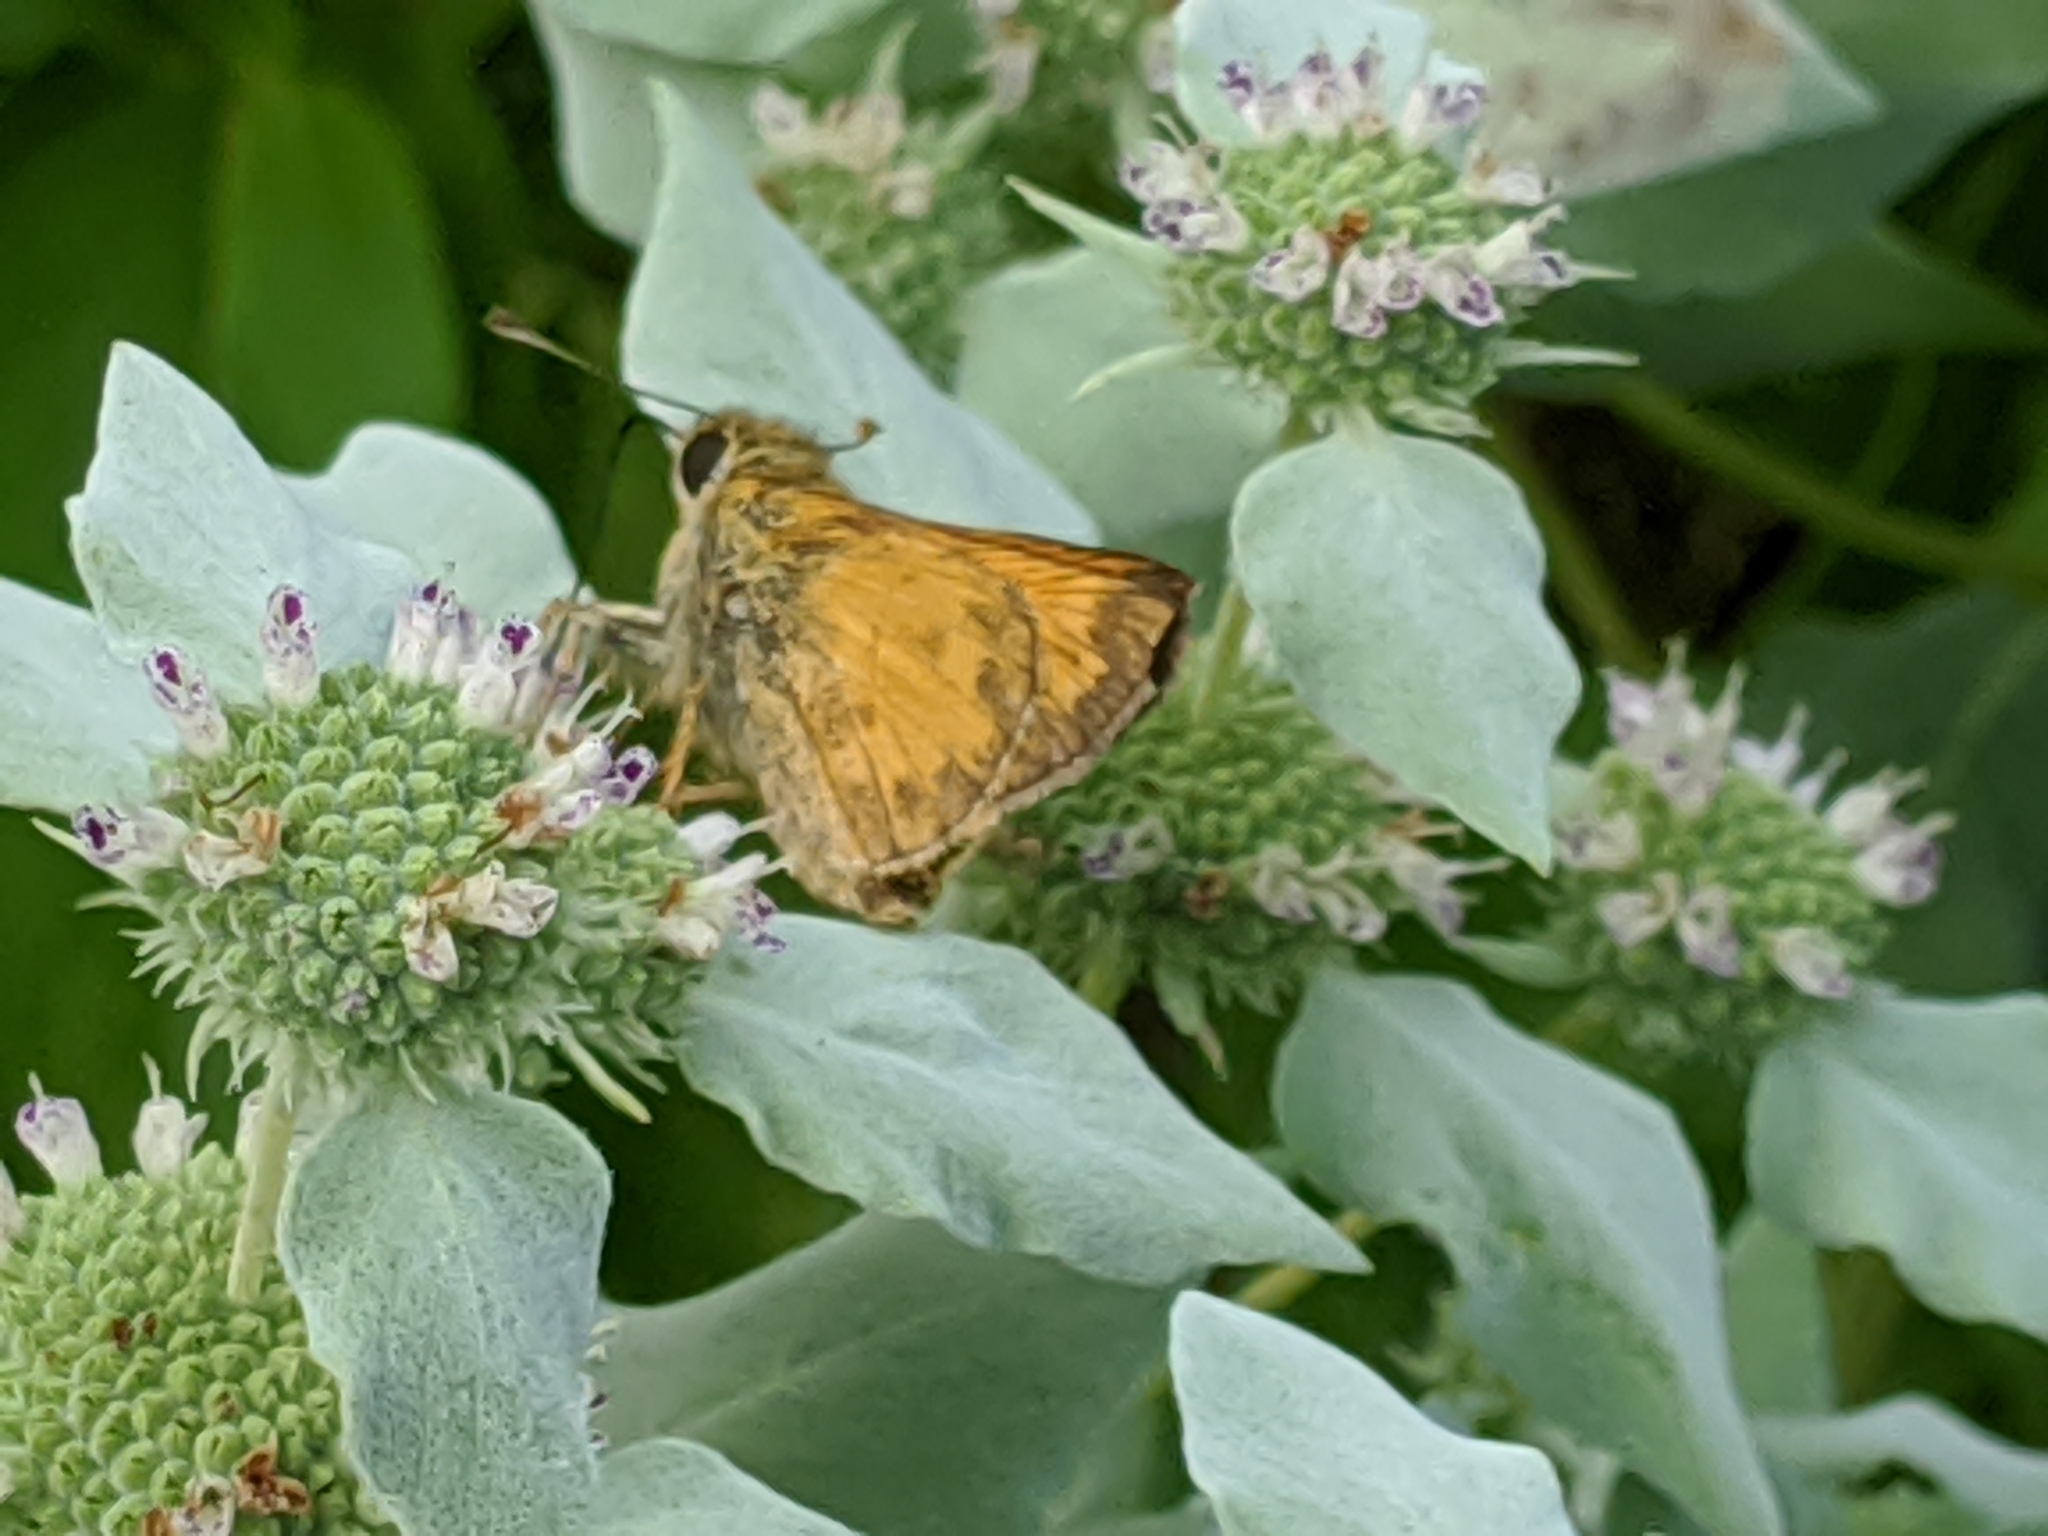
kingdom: Animalia
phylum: Arthropoda
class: Insecta
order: Lepidoptera
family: Hesperiidae
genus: Atalopedes
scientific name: Atalopedes
